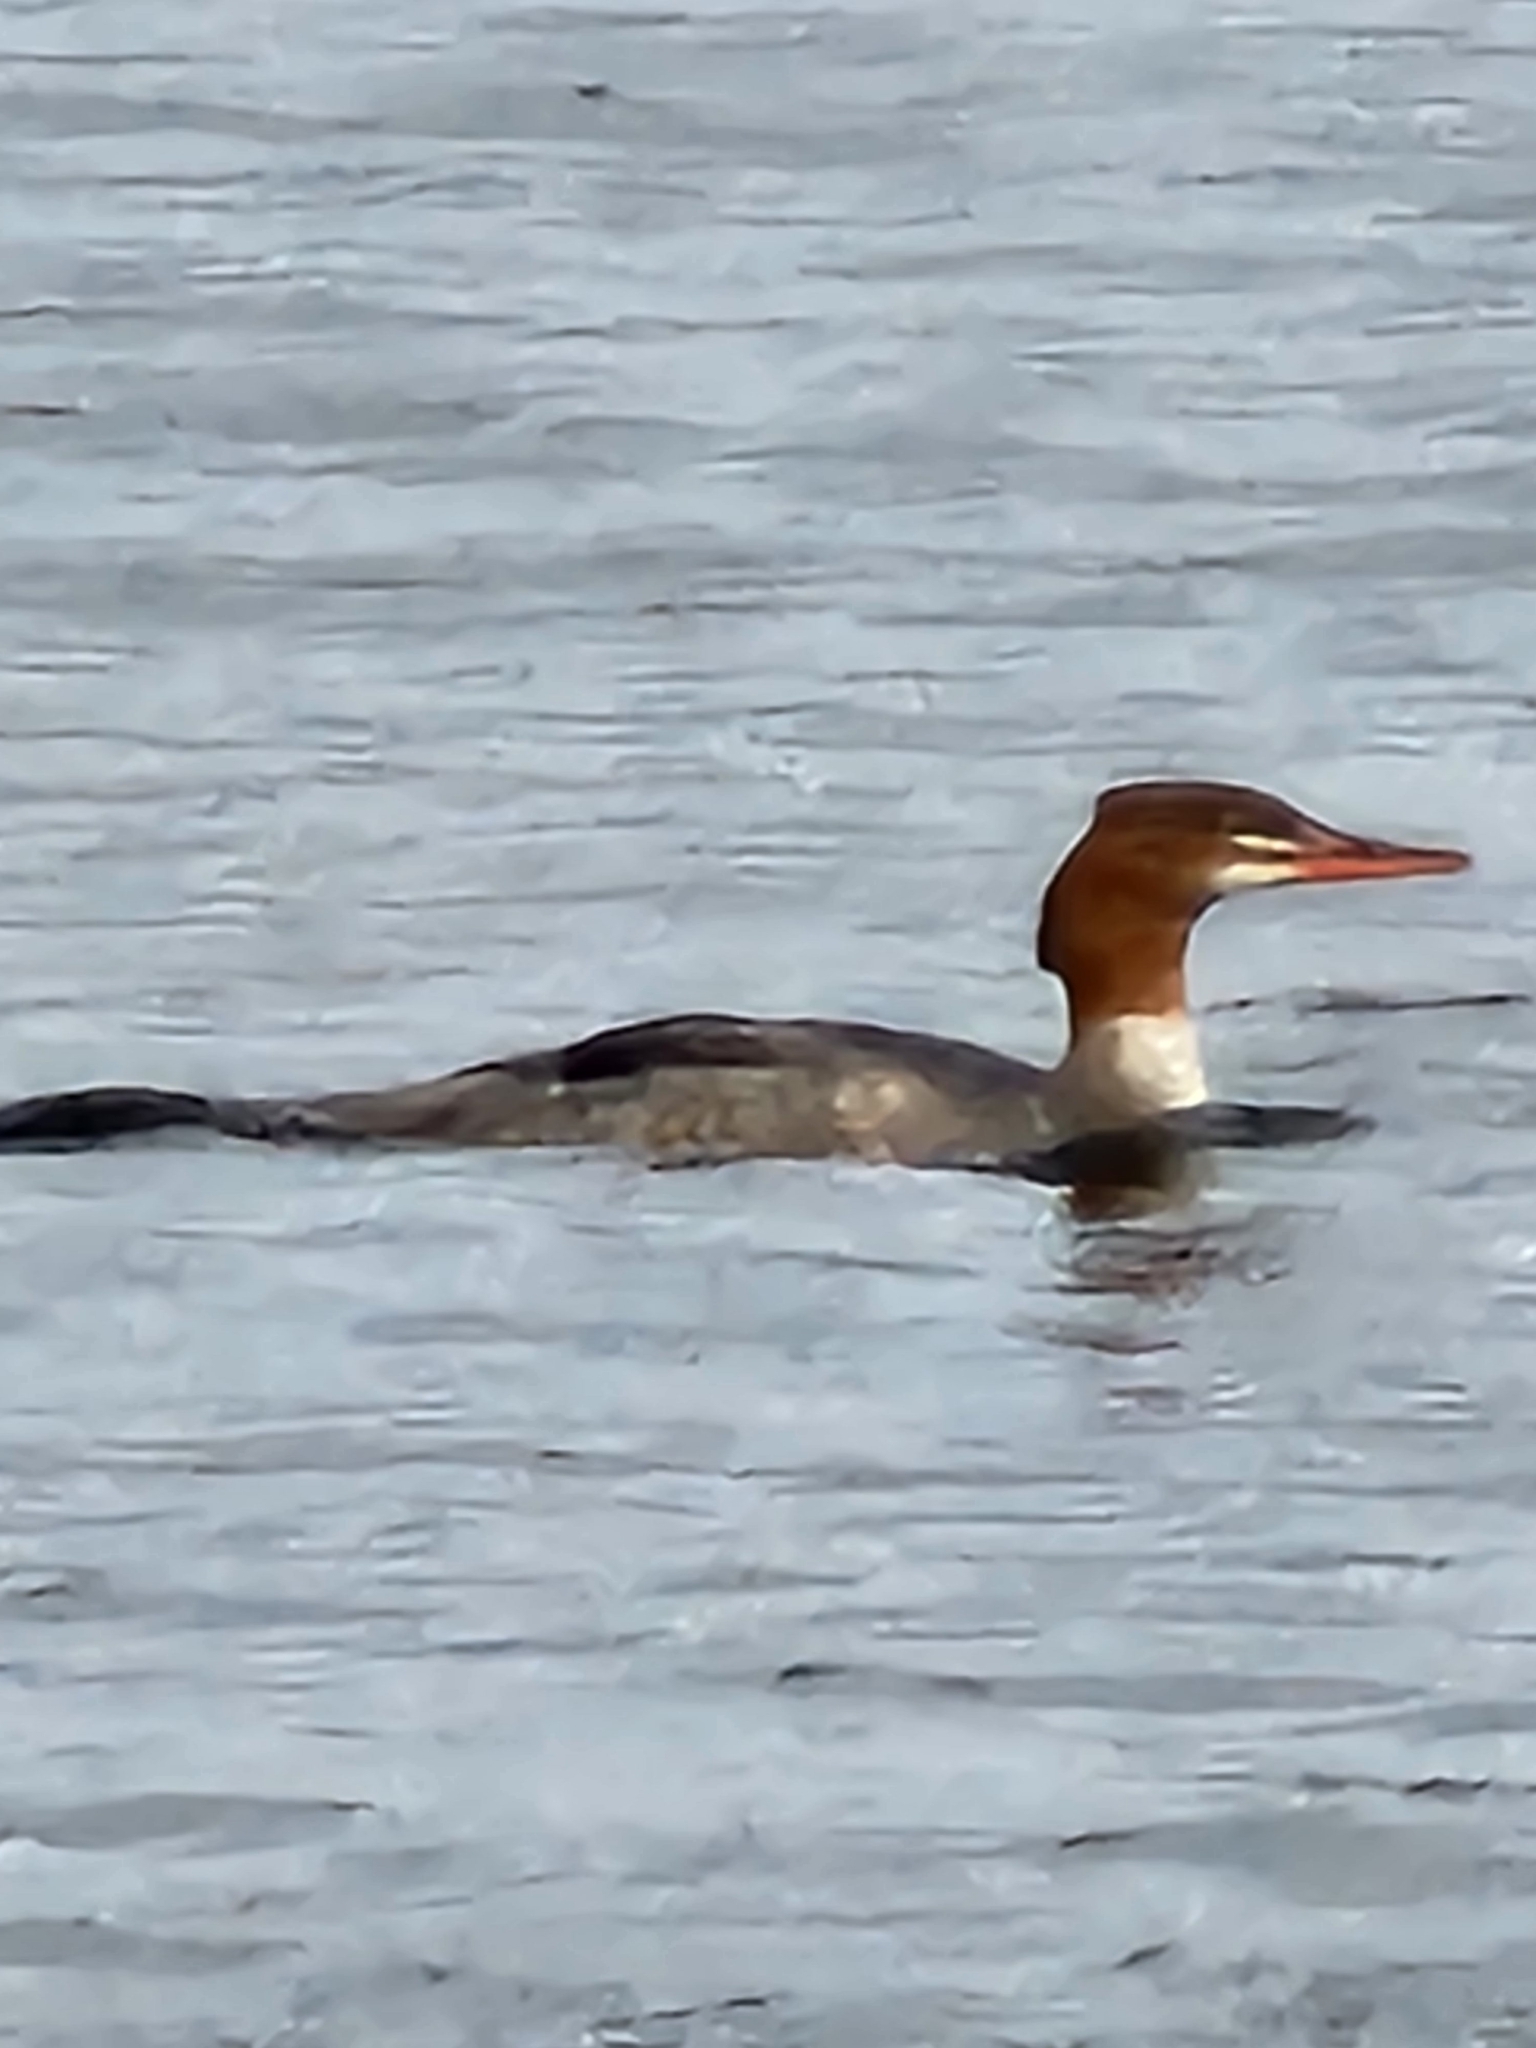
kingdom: Animalia
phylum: Chordata
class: Aves
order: Anseriformes
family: Anatidae
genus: Mergus
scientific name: Mergus merganser
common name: Common merganser
